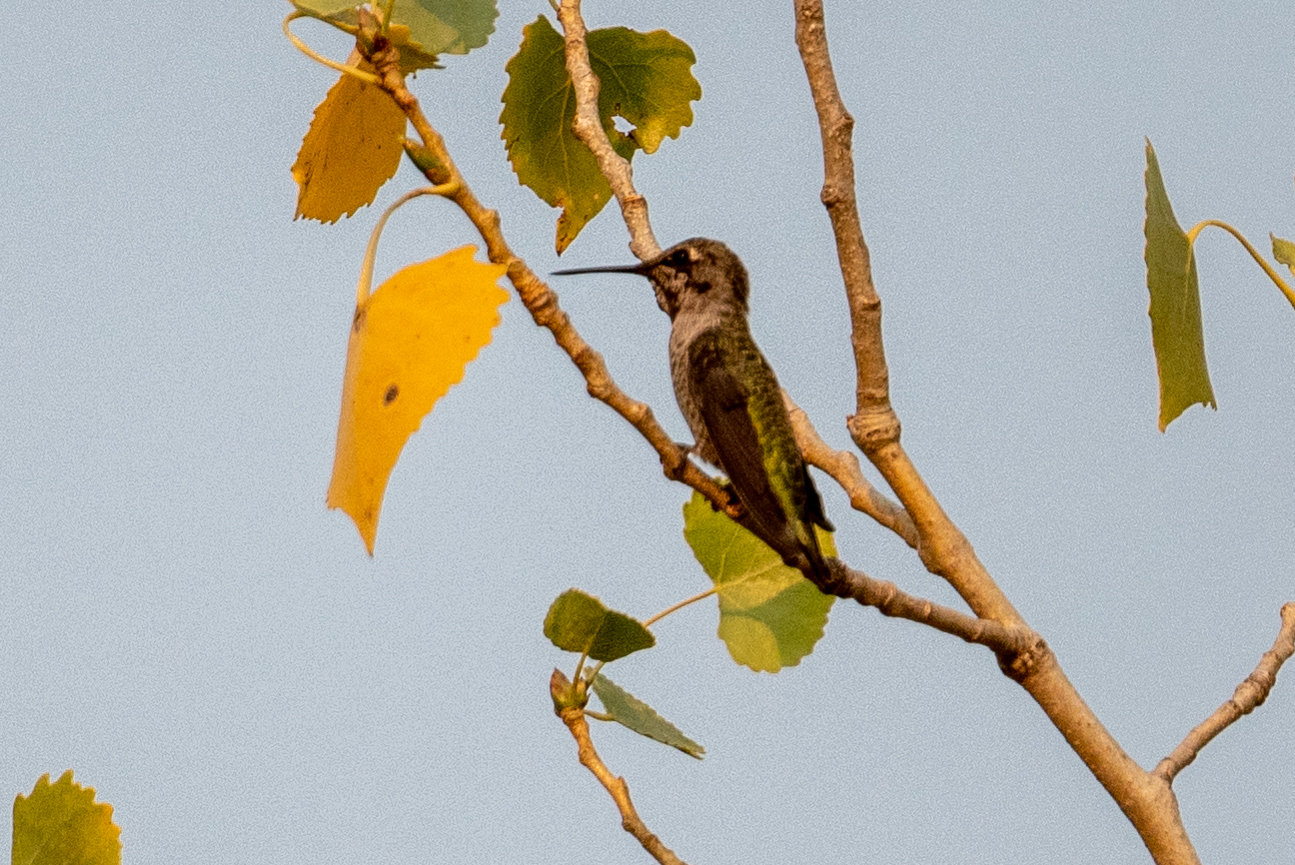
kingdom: Animalia
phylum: Chordata
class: Aves
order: Apodiformes
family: Trochilidae
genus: Calypte
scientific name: Calypte anna
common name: Anna's hummingbird
